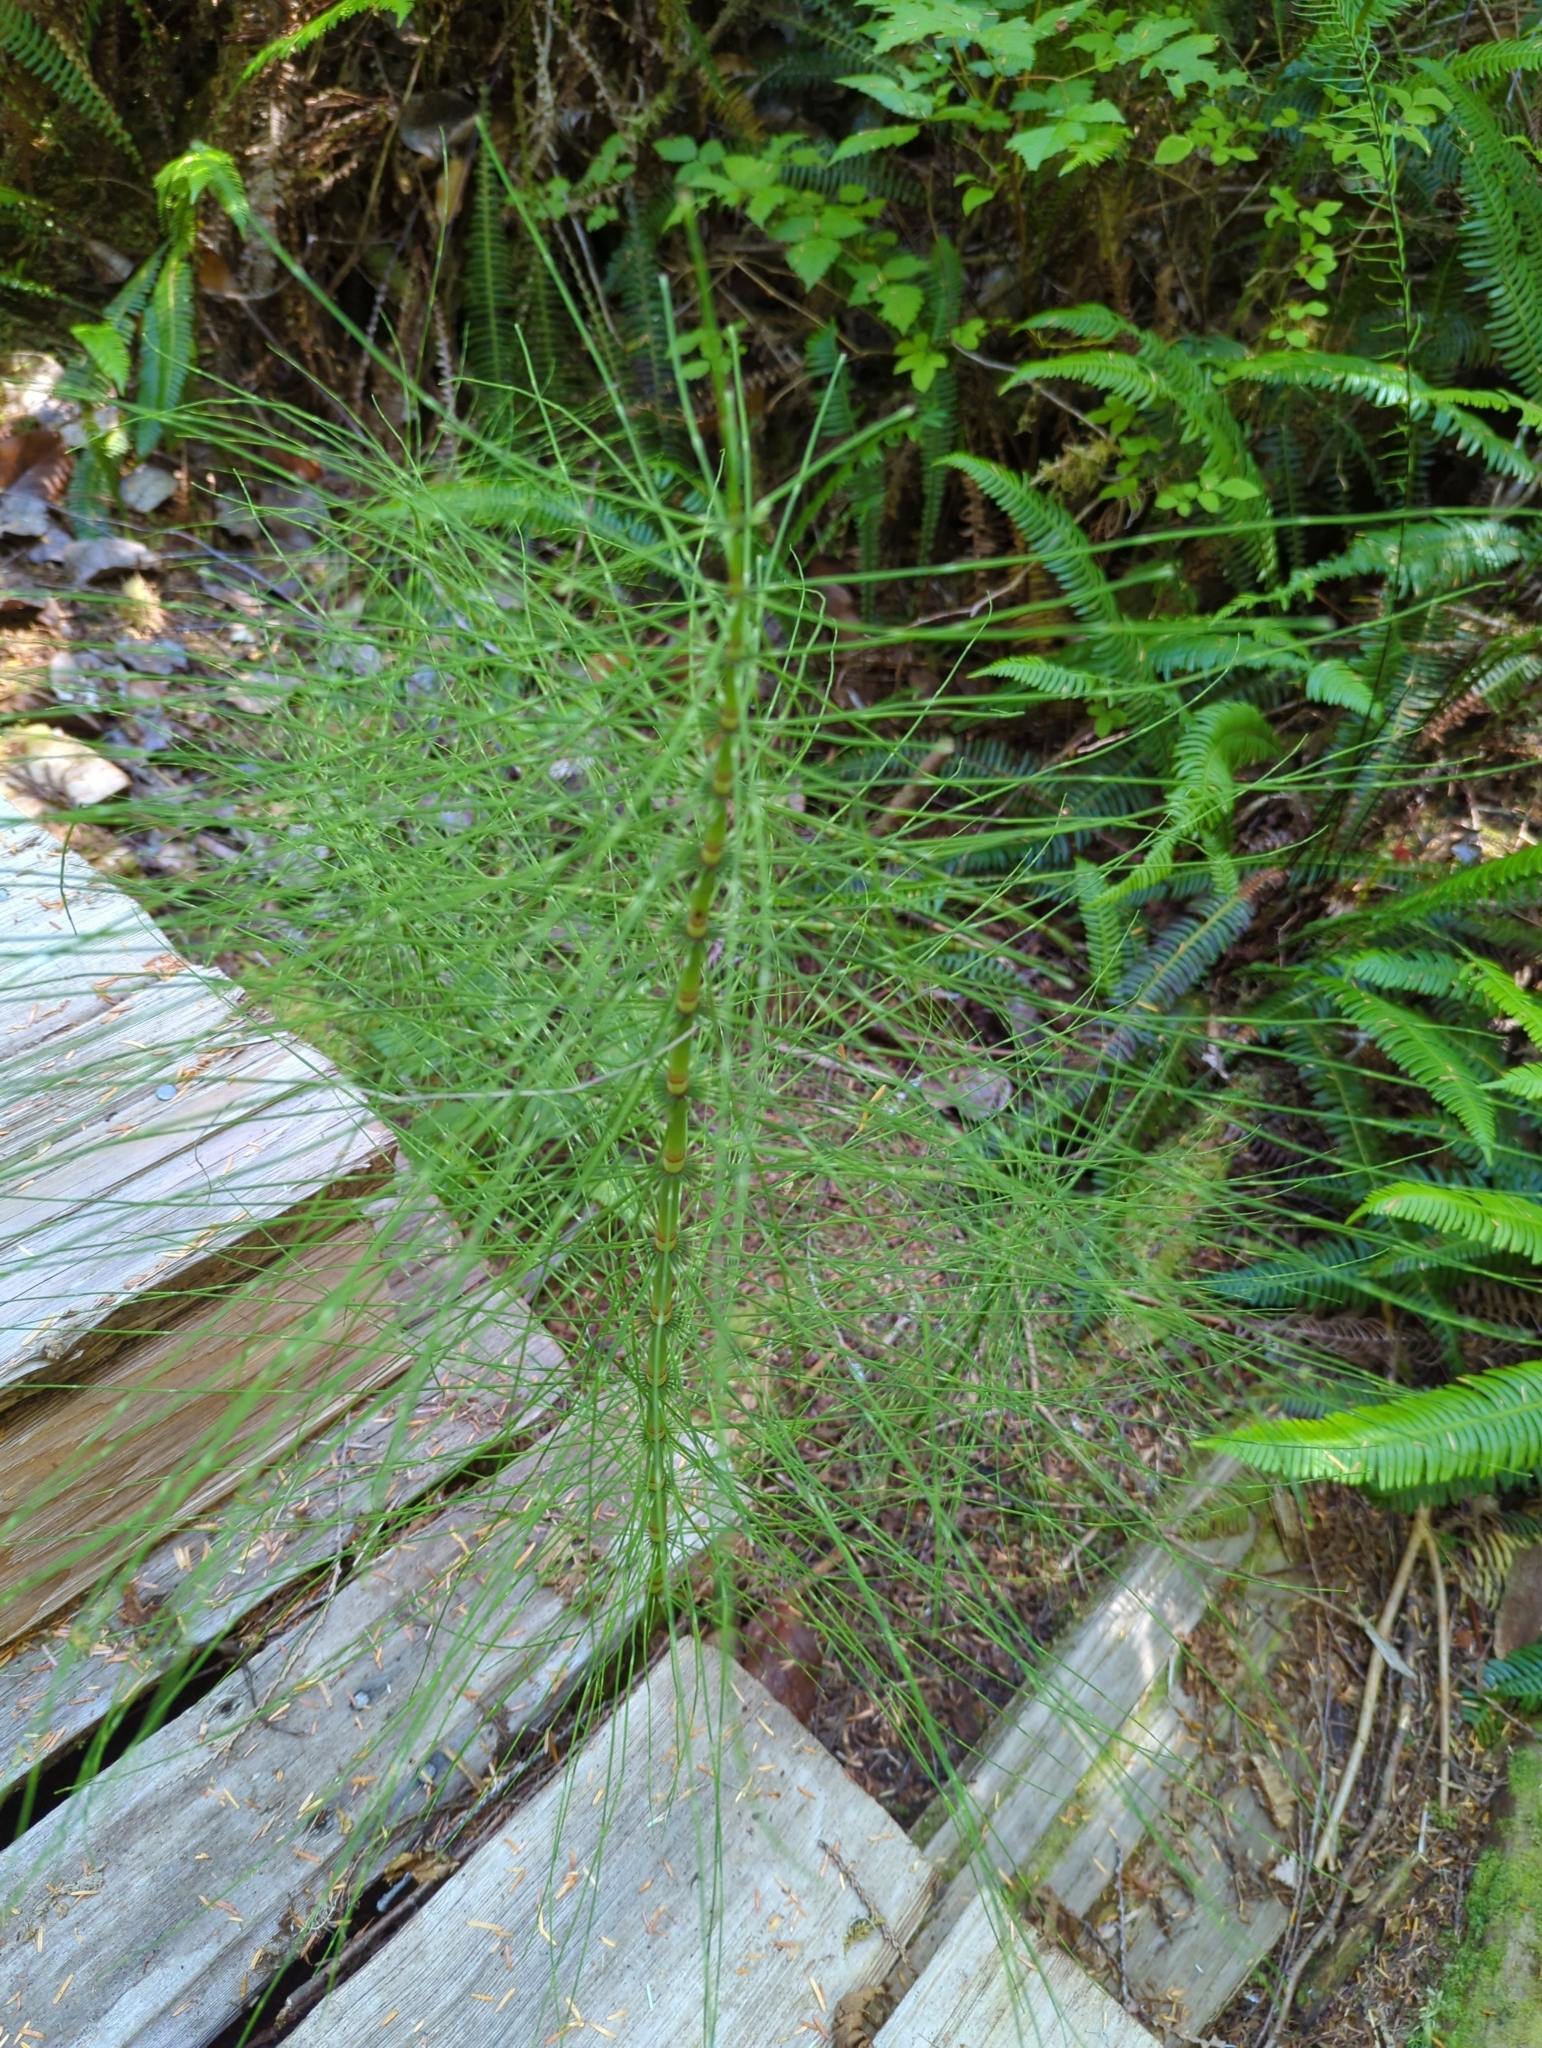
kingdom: Plantae
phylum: Tracheophyta
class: Polypodiopsida
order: Equisetales
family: Equisetaceae
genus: Equisetum
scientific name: Equisetum telmateia
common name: Great horsetail
